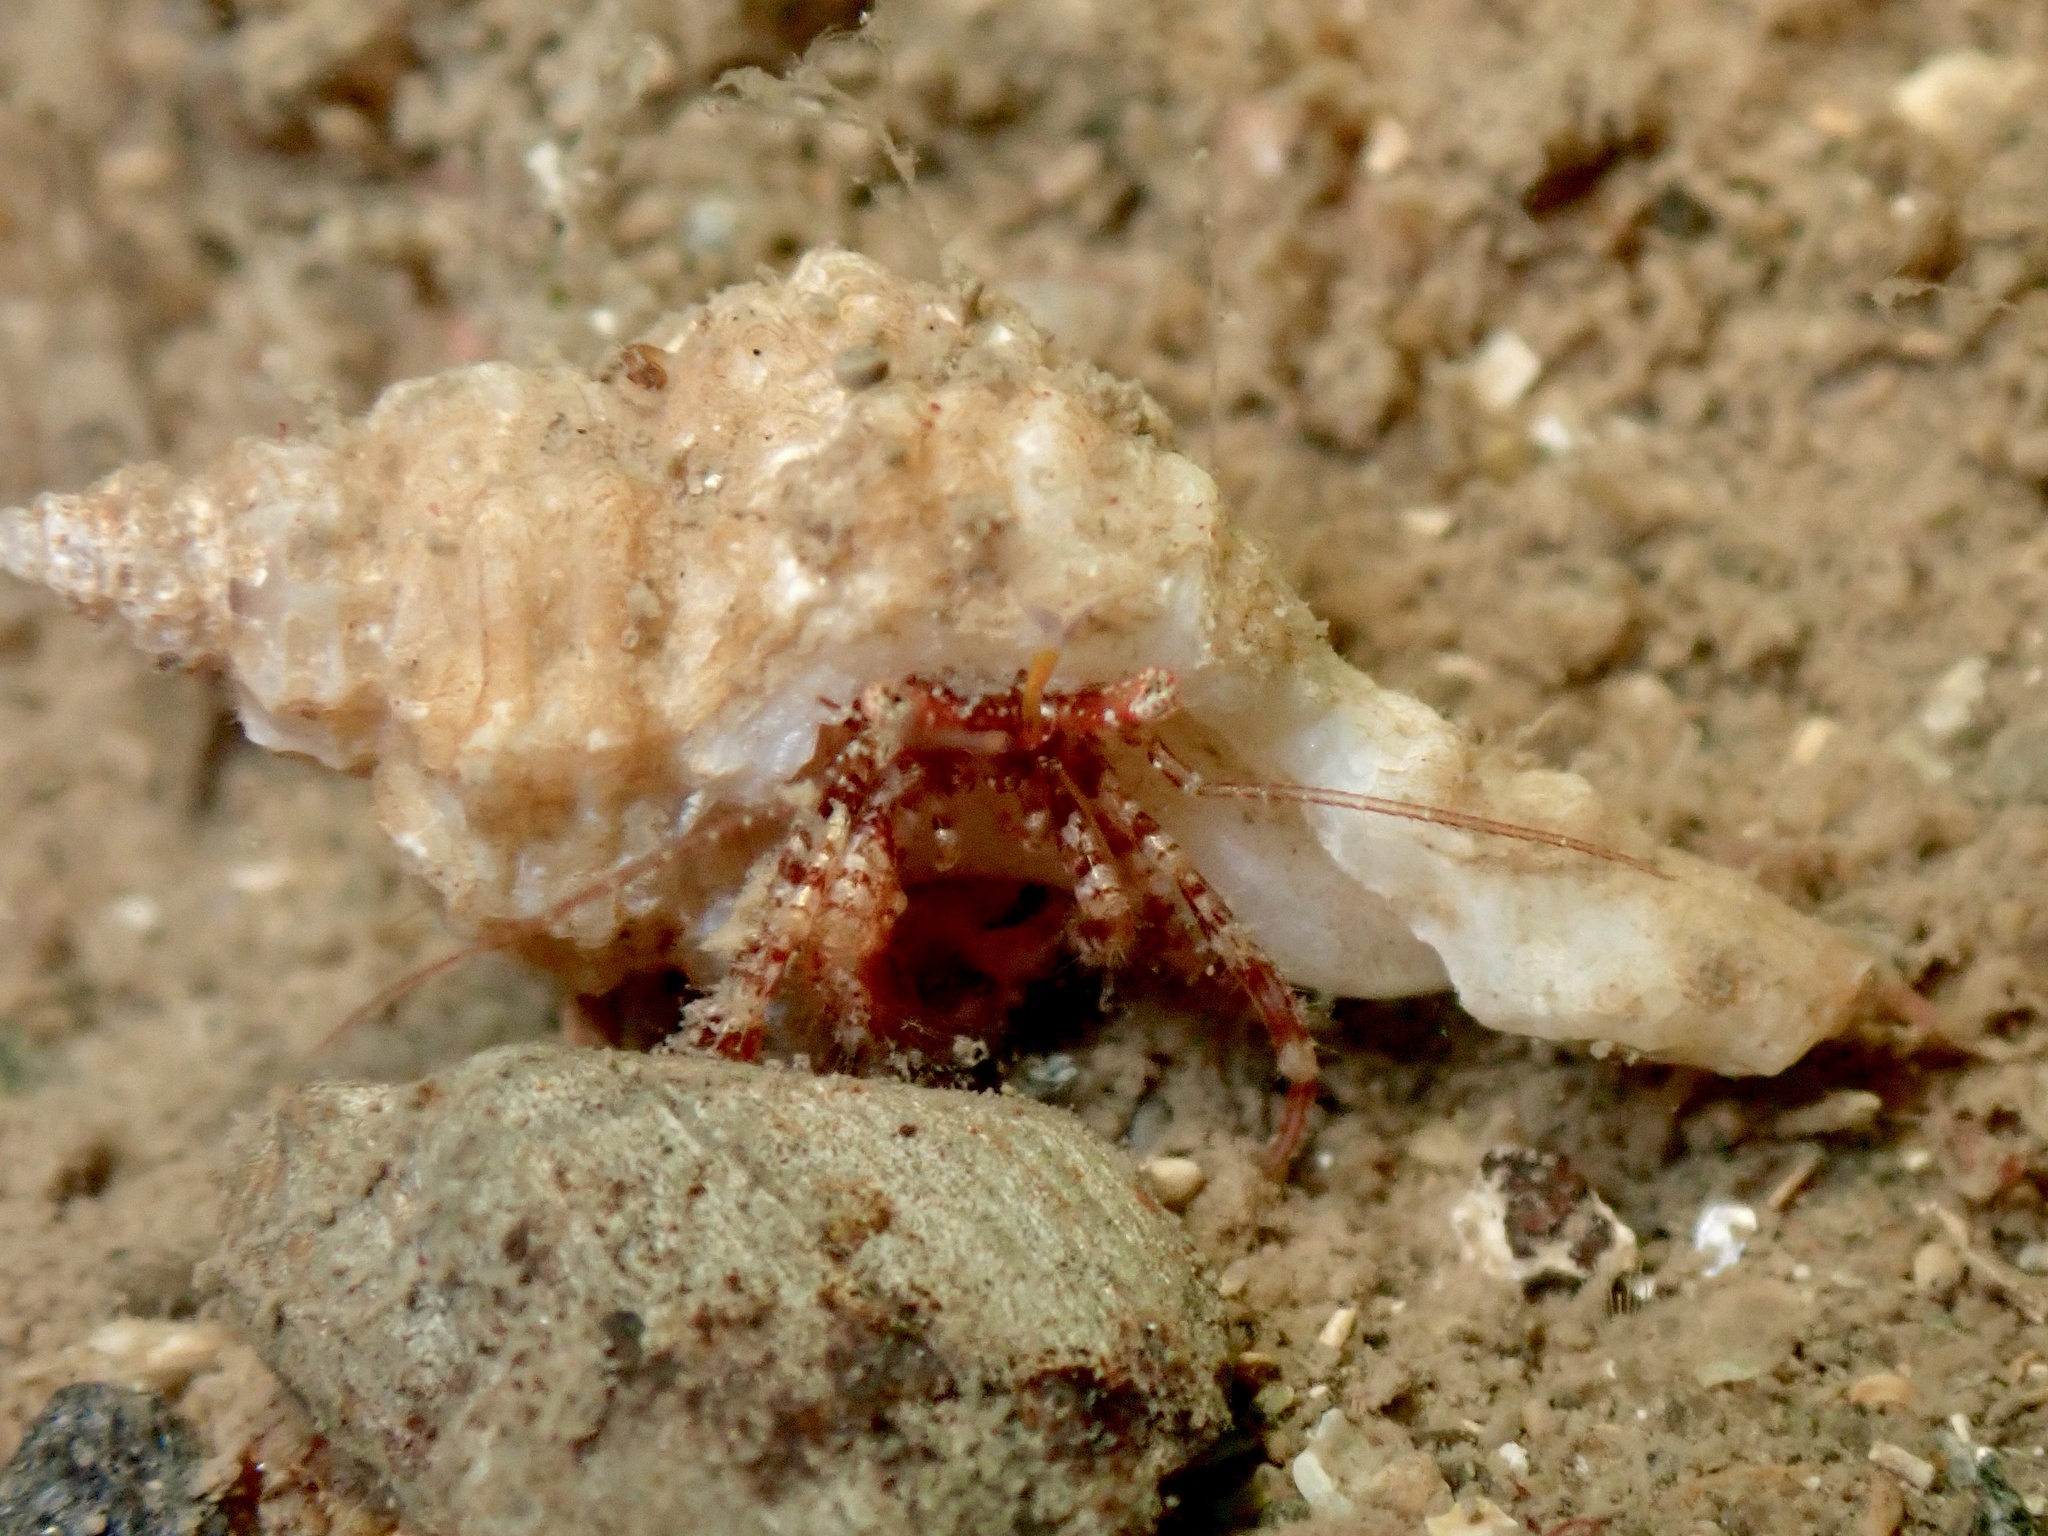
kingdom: Animalia
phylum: Arthropoda
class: Malacostraca
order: Decapoda
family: Paguridae
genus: Anapagurus
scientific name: Anapagurus chiroacanthus
